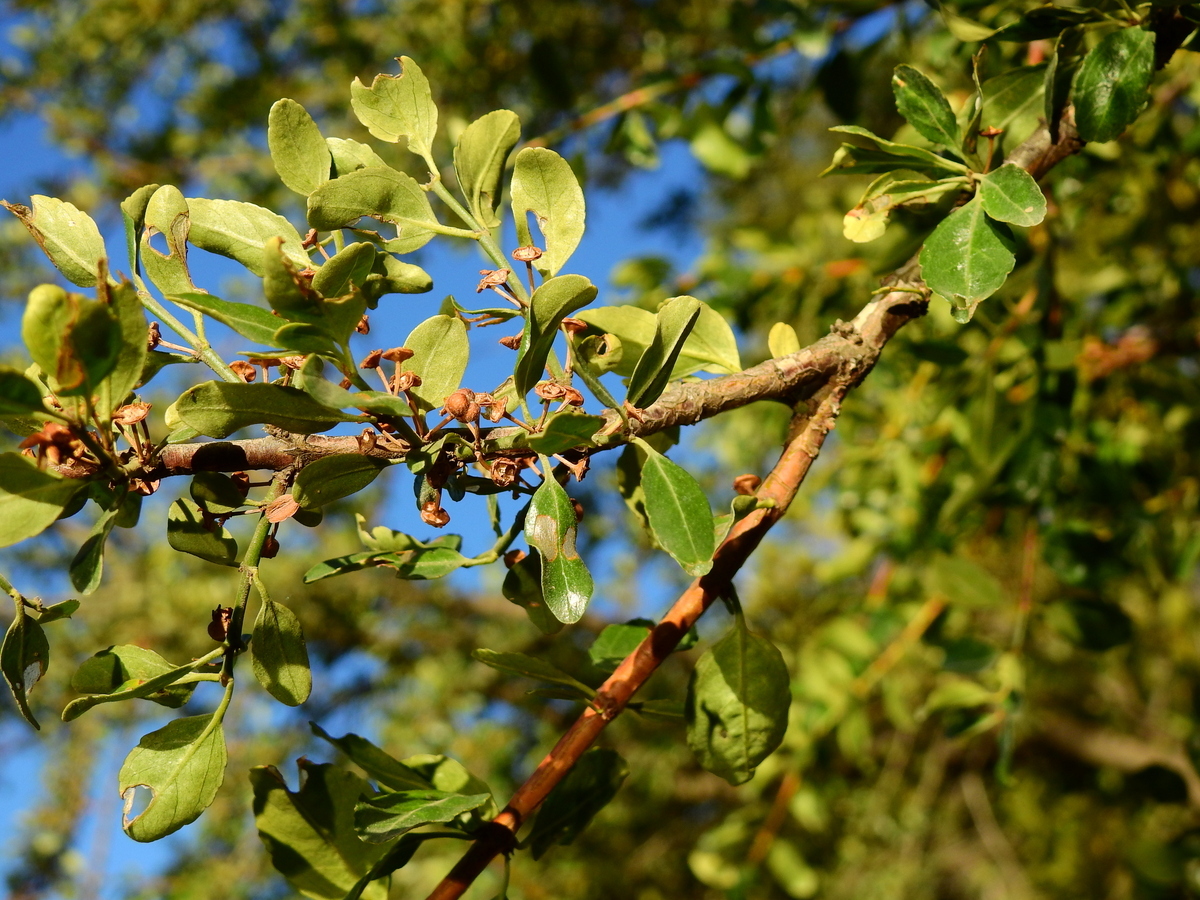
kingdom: Plantae
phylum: Tracheophyta
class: Magnoliopsida
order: Rosales
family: Rhamnaceae
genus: Discaria
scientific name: Discaria chacaye
